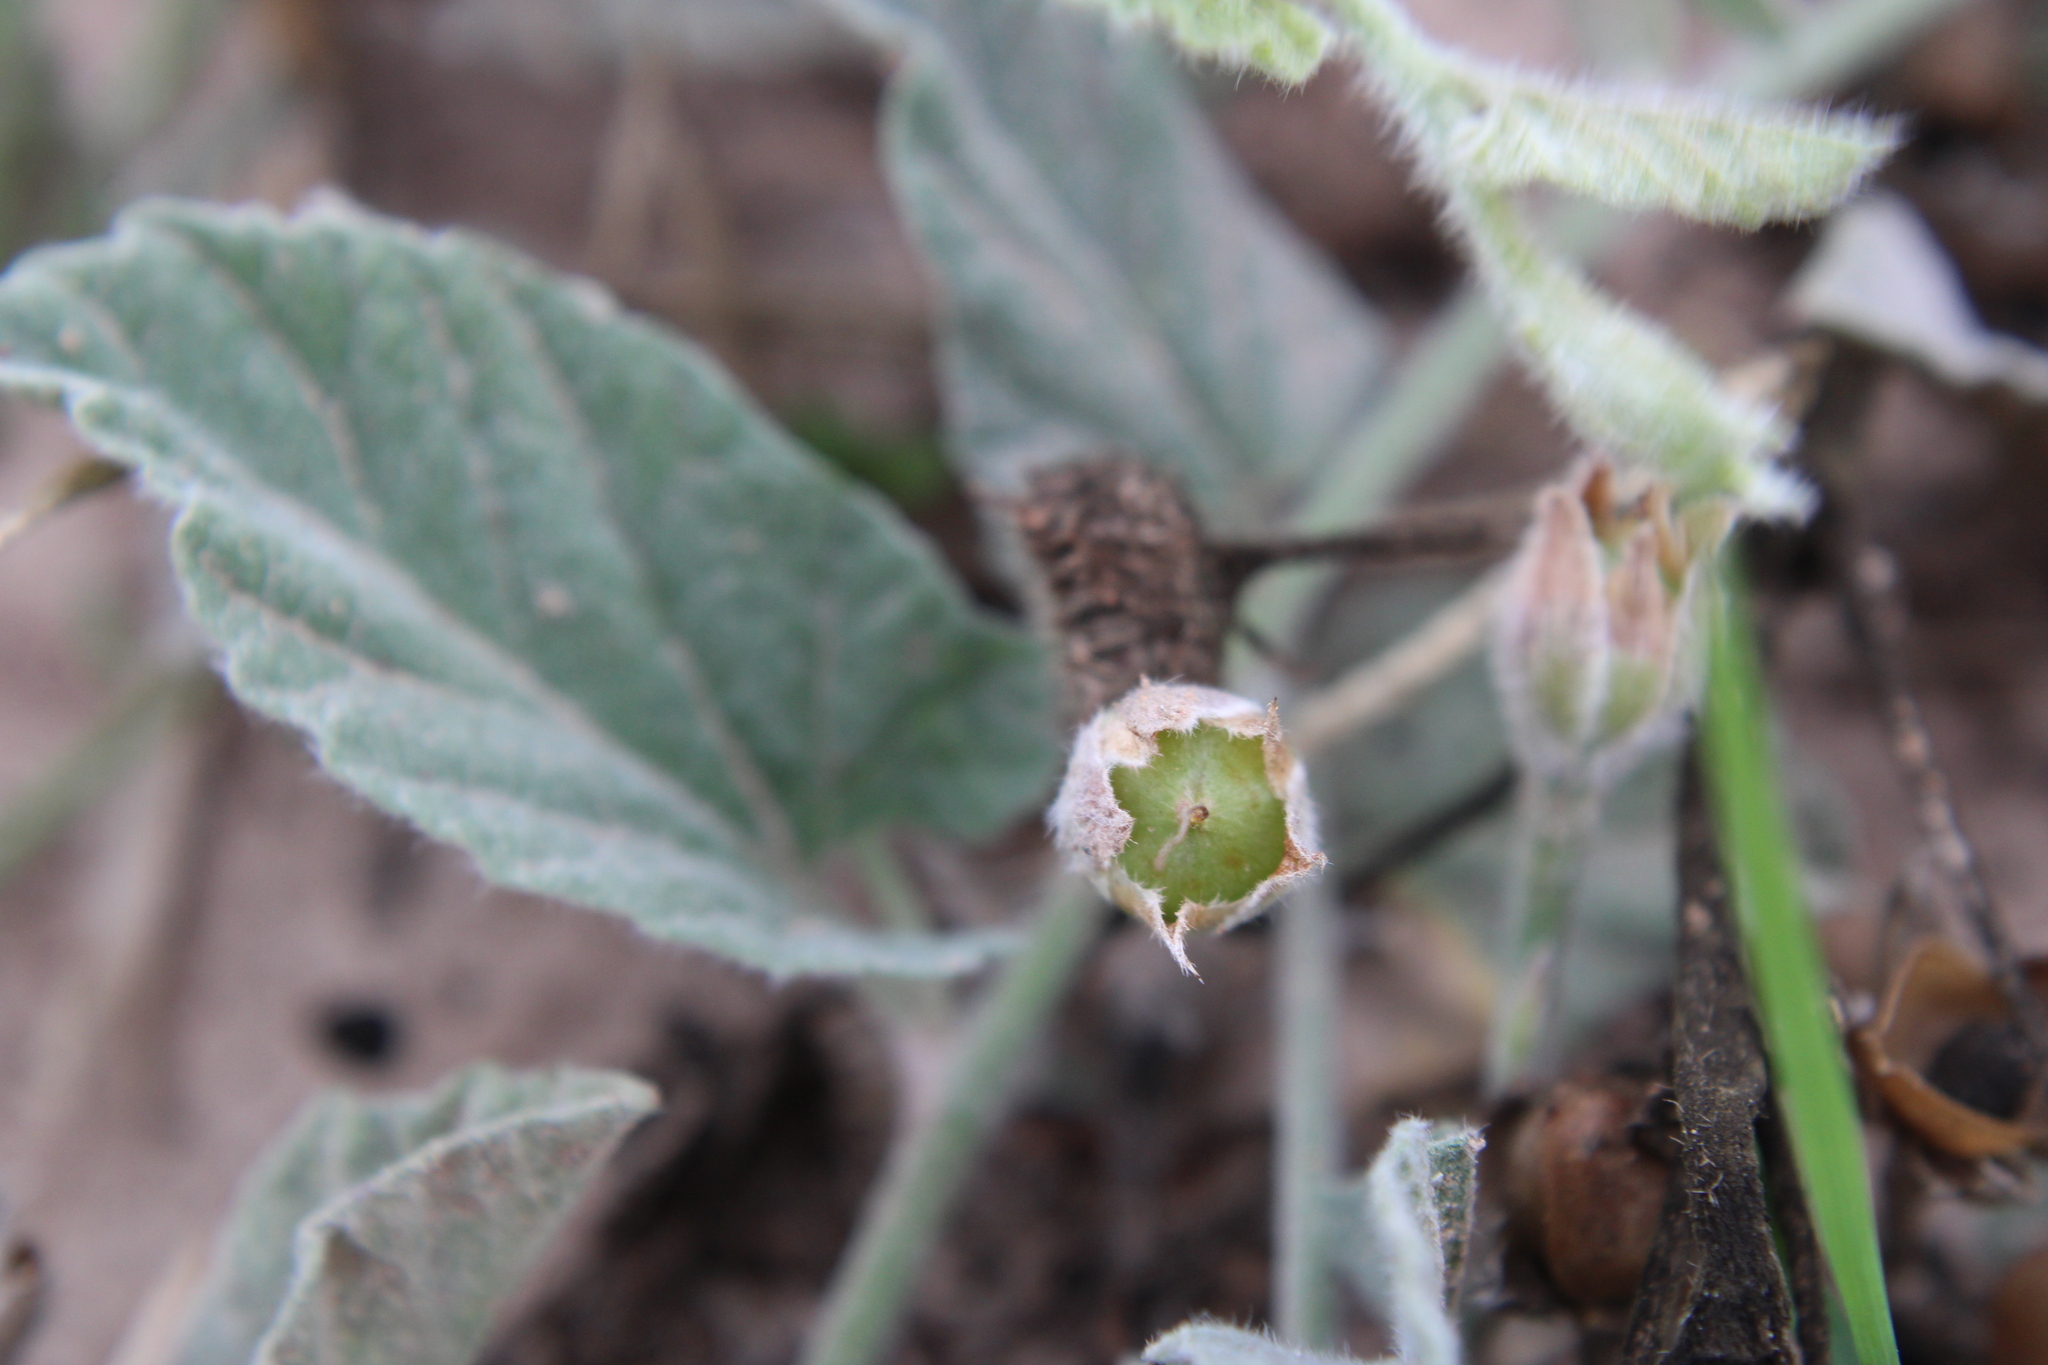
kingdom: Plantae
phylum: Tracheophyta
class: Magnoliopsida
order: Solanales
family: Convolvulaceae
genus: Convolvulus
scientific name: Convolvulus hermanniae
